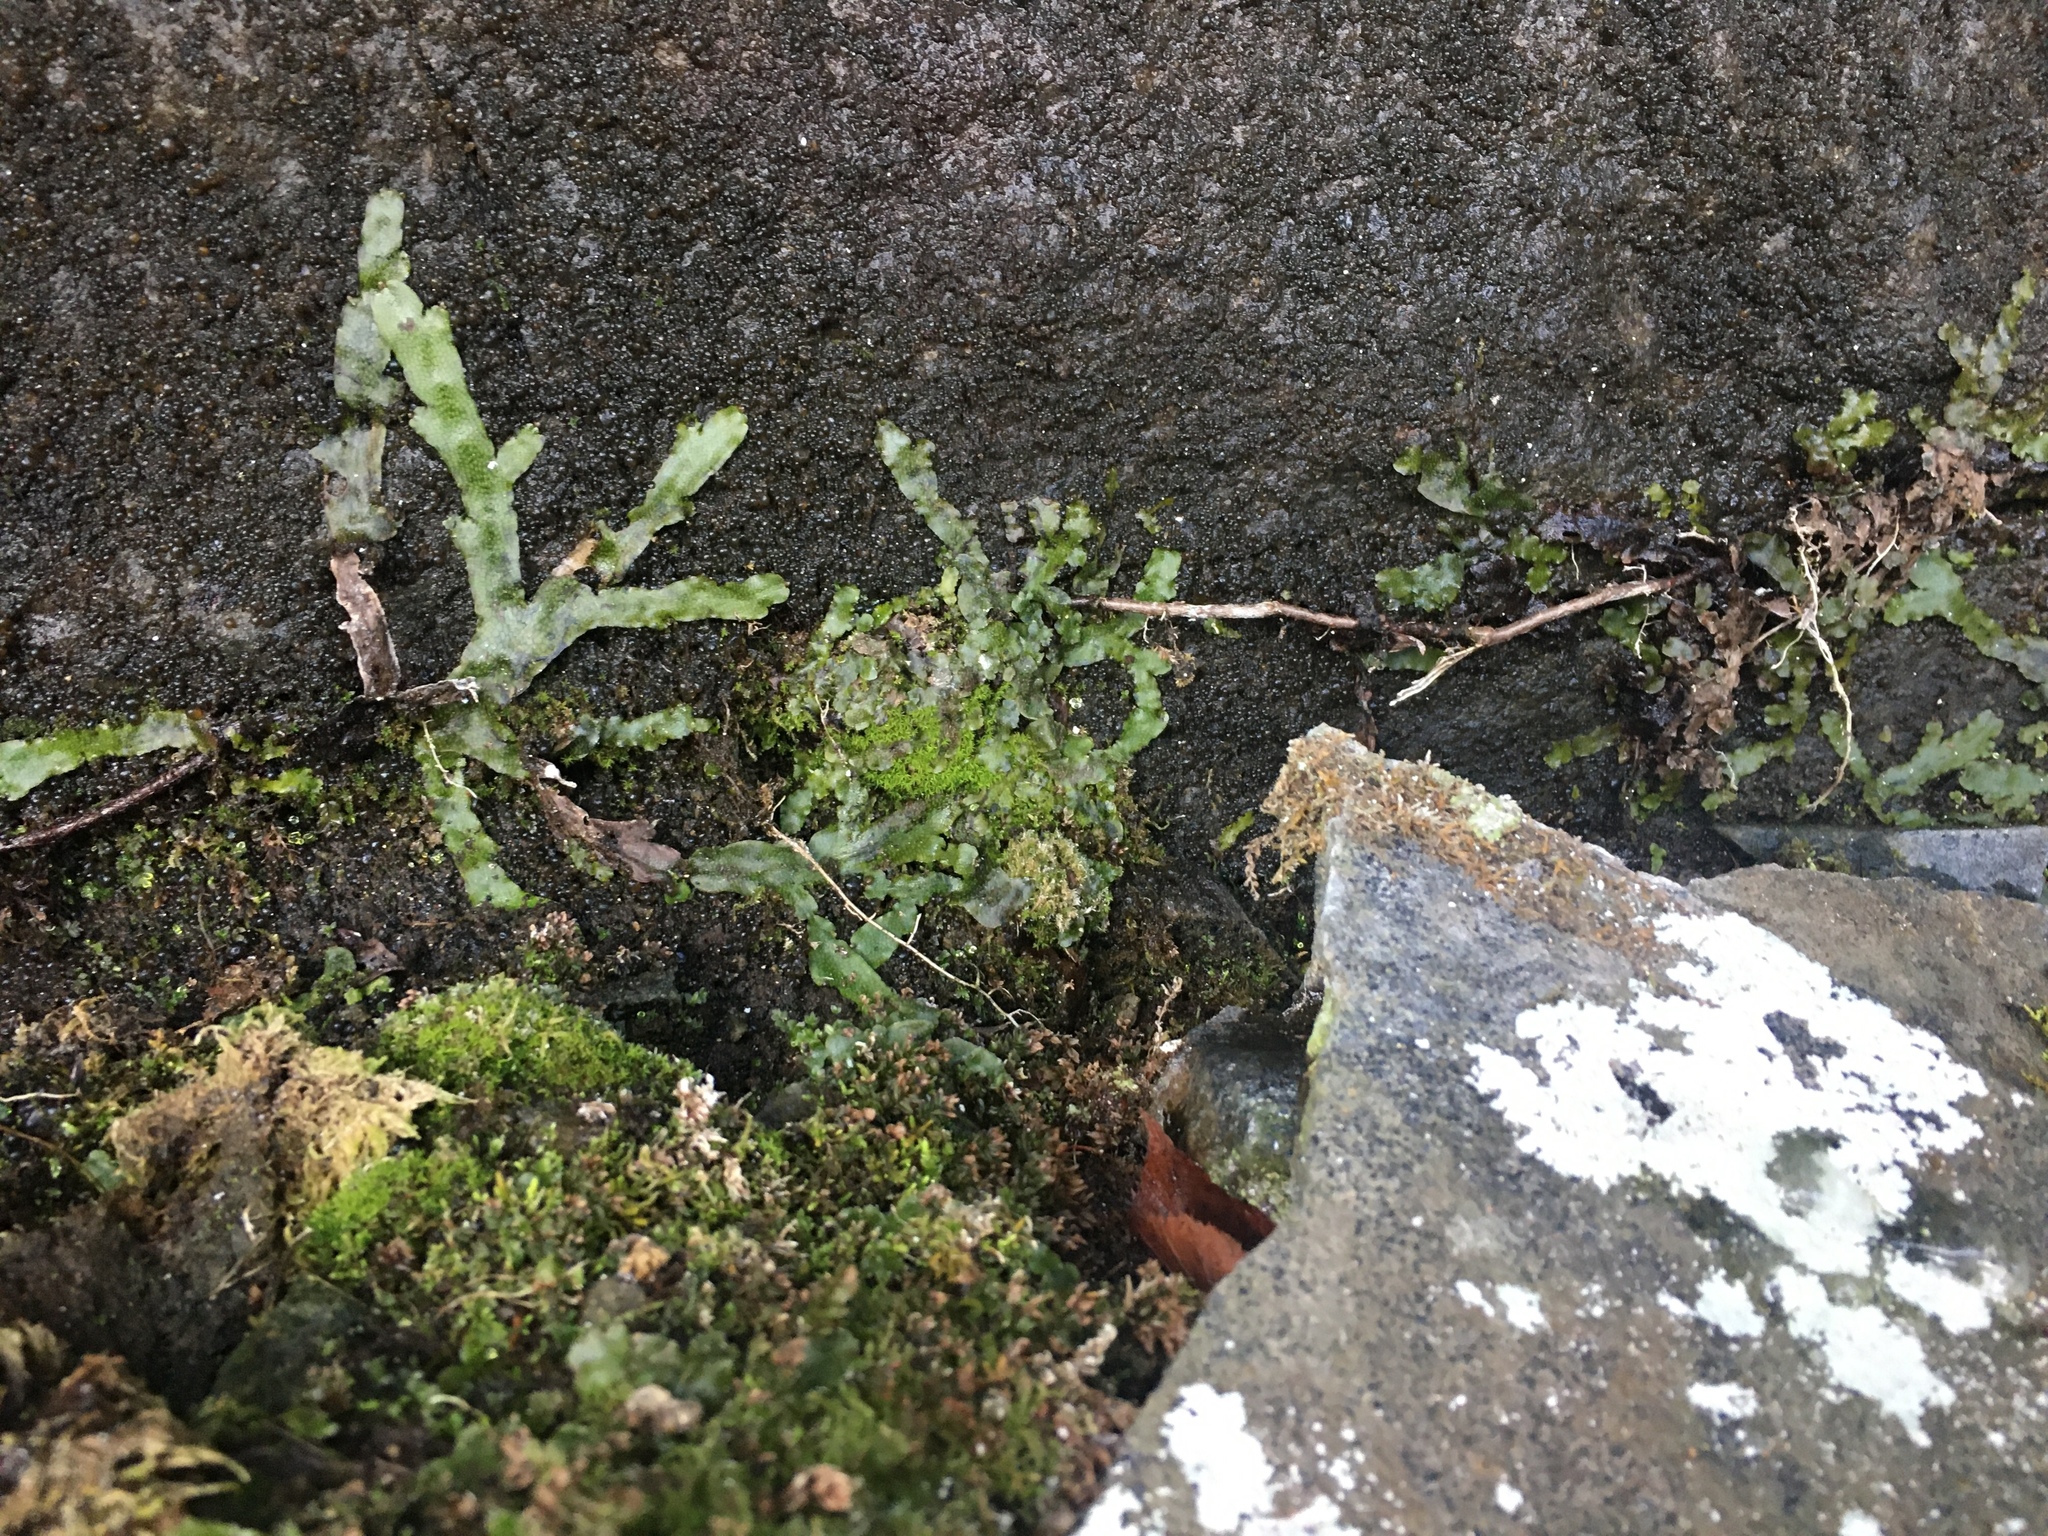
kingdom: Plantae
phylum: Marchantiophyta
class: Marchantiopsida
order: Marchantiales
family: Conocephalaceae
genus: Conocephalum
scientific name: Conocephalum salebrosum
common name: Cat-tongue liverwort
